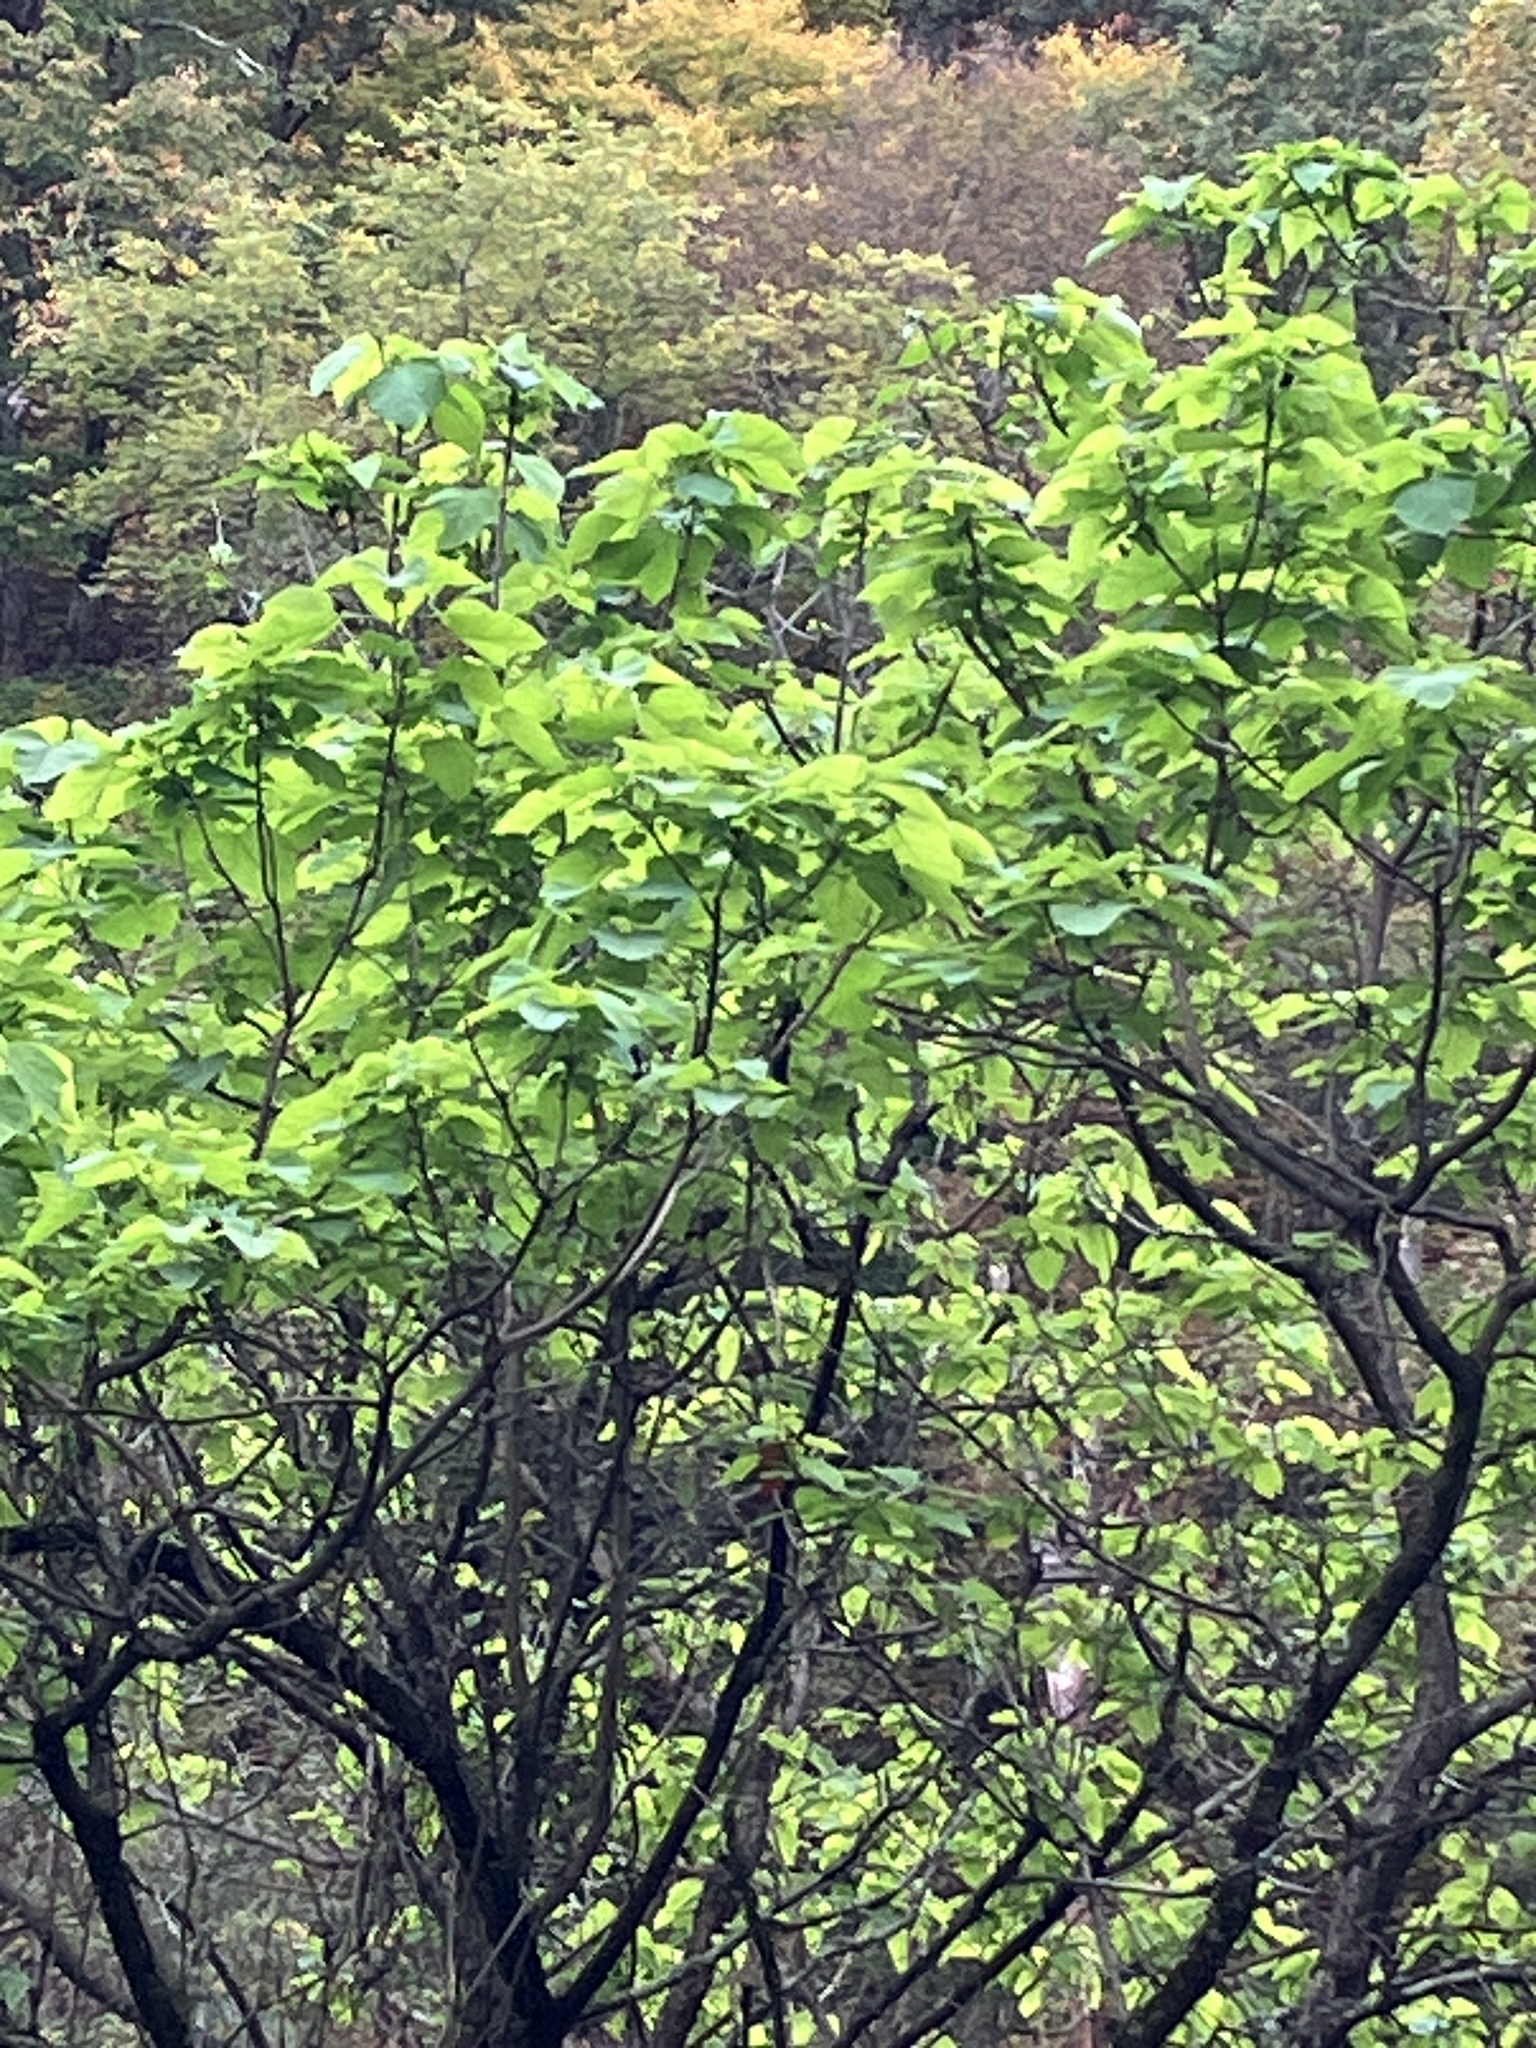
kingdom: Plantae
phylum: Tracheophyta
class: Magnoliopsida
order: Lamiales
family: Bignoniaceae
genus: Catalpa
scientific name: Catalpa speciosa
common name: Northern catalpa
